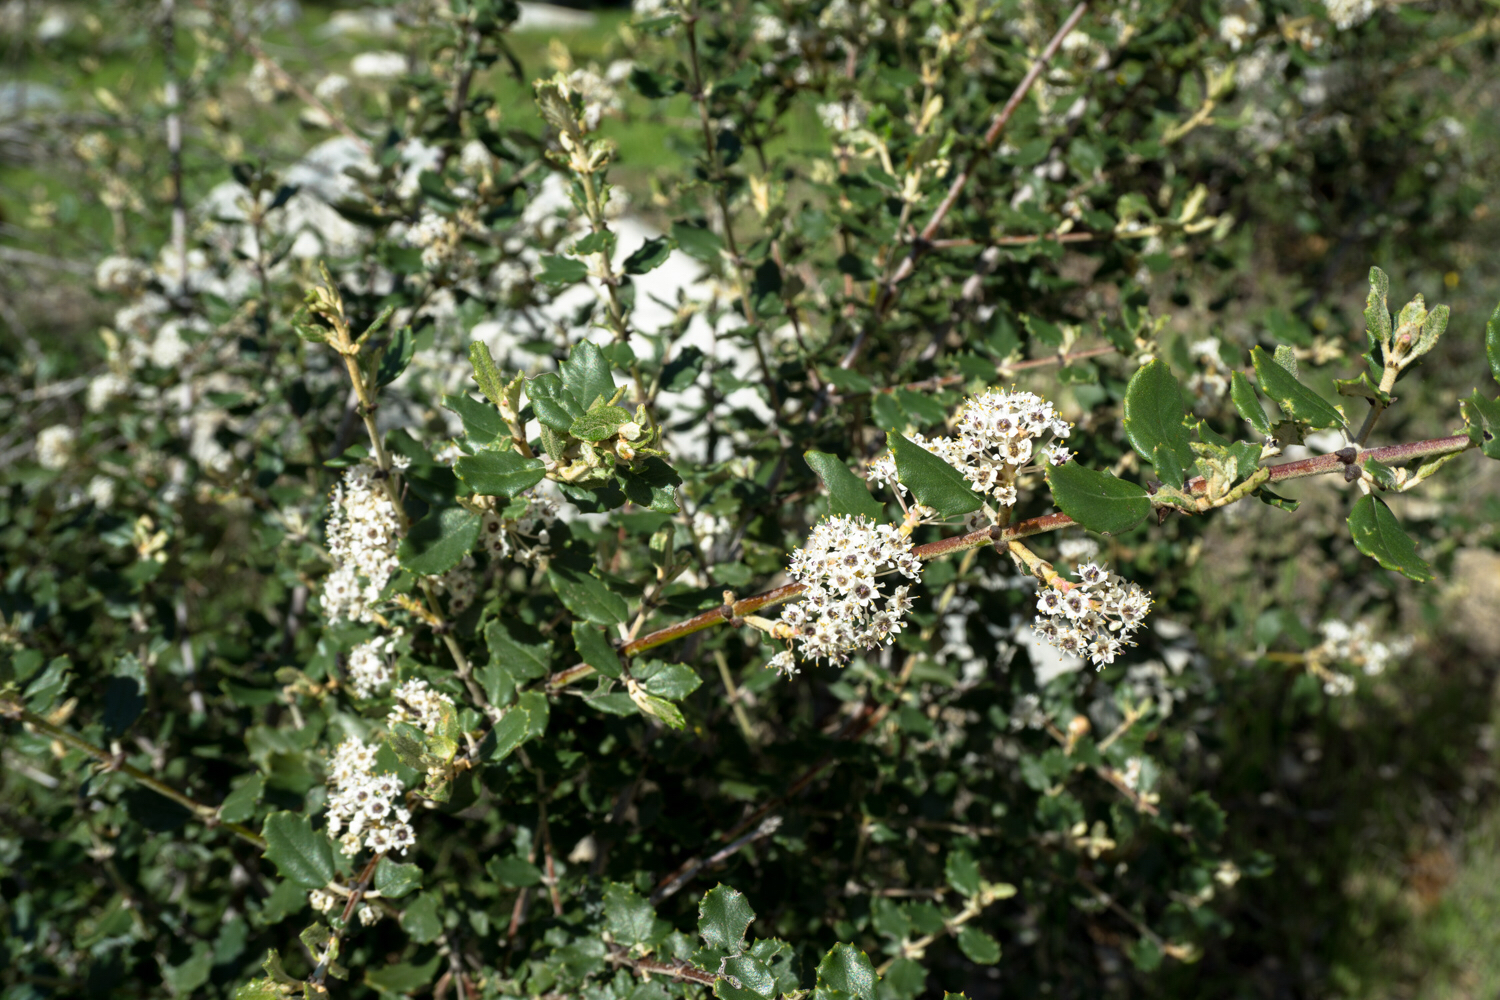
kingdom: Plantae
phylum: Tracheophyta
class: Magnoliopsida
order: Rosales
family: Rhamnaceae
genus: Ceanothus
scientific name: Ceanothus crassifolius
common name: Hoaryleaf ceanothus
